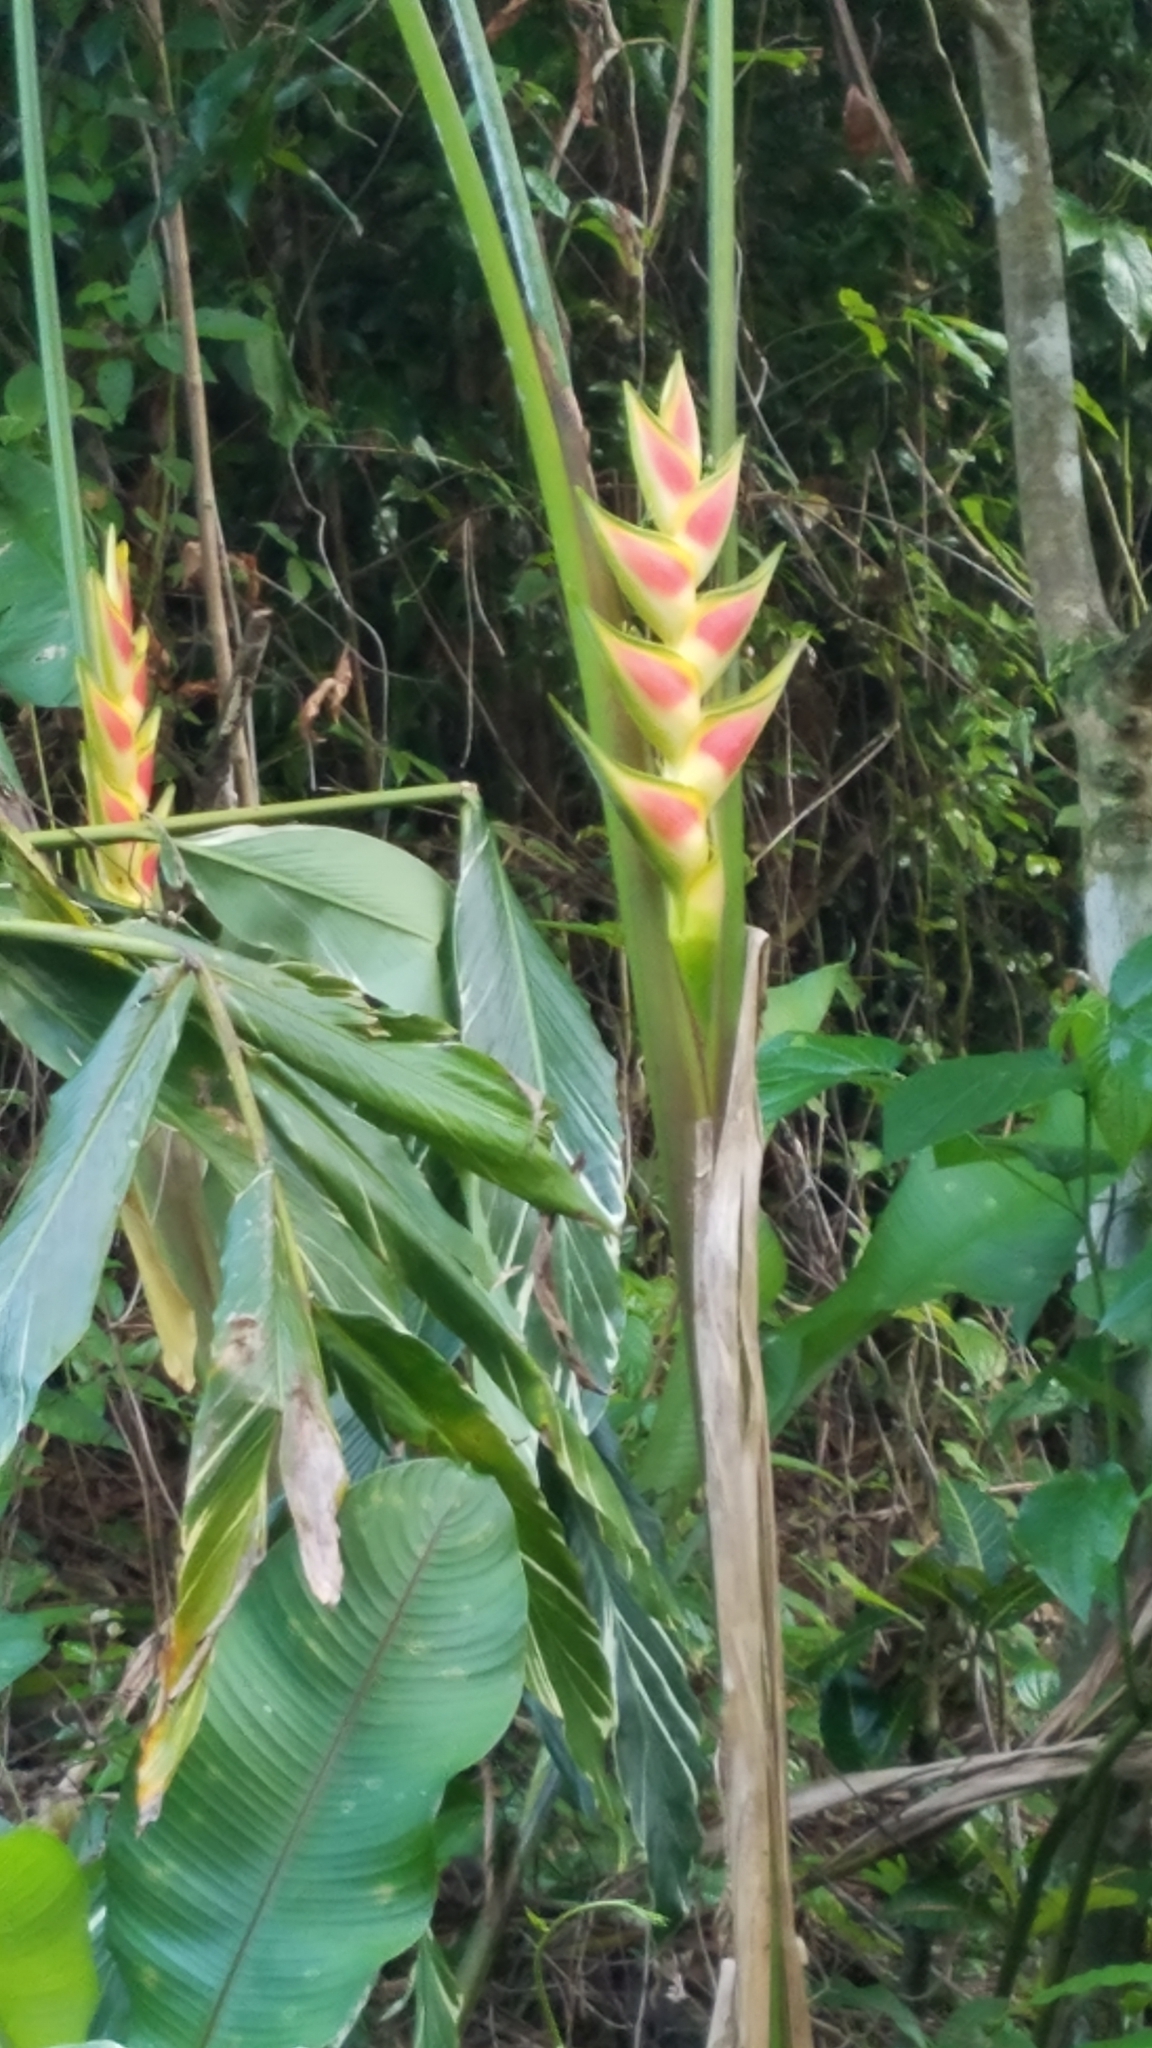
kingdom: Plantae
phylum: Tracheophyta
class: Liliopsida
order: Zingiberales
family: Heliconiaceae
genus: Heliconia
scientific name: Heliconia wagneriana
